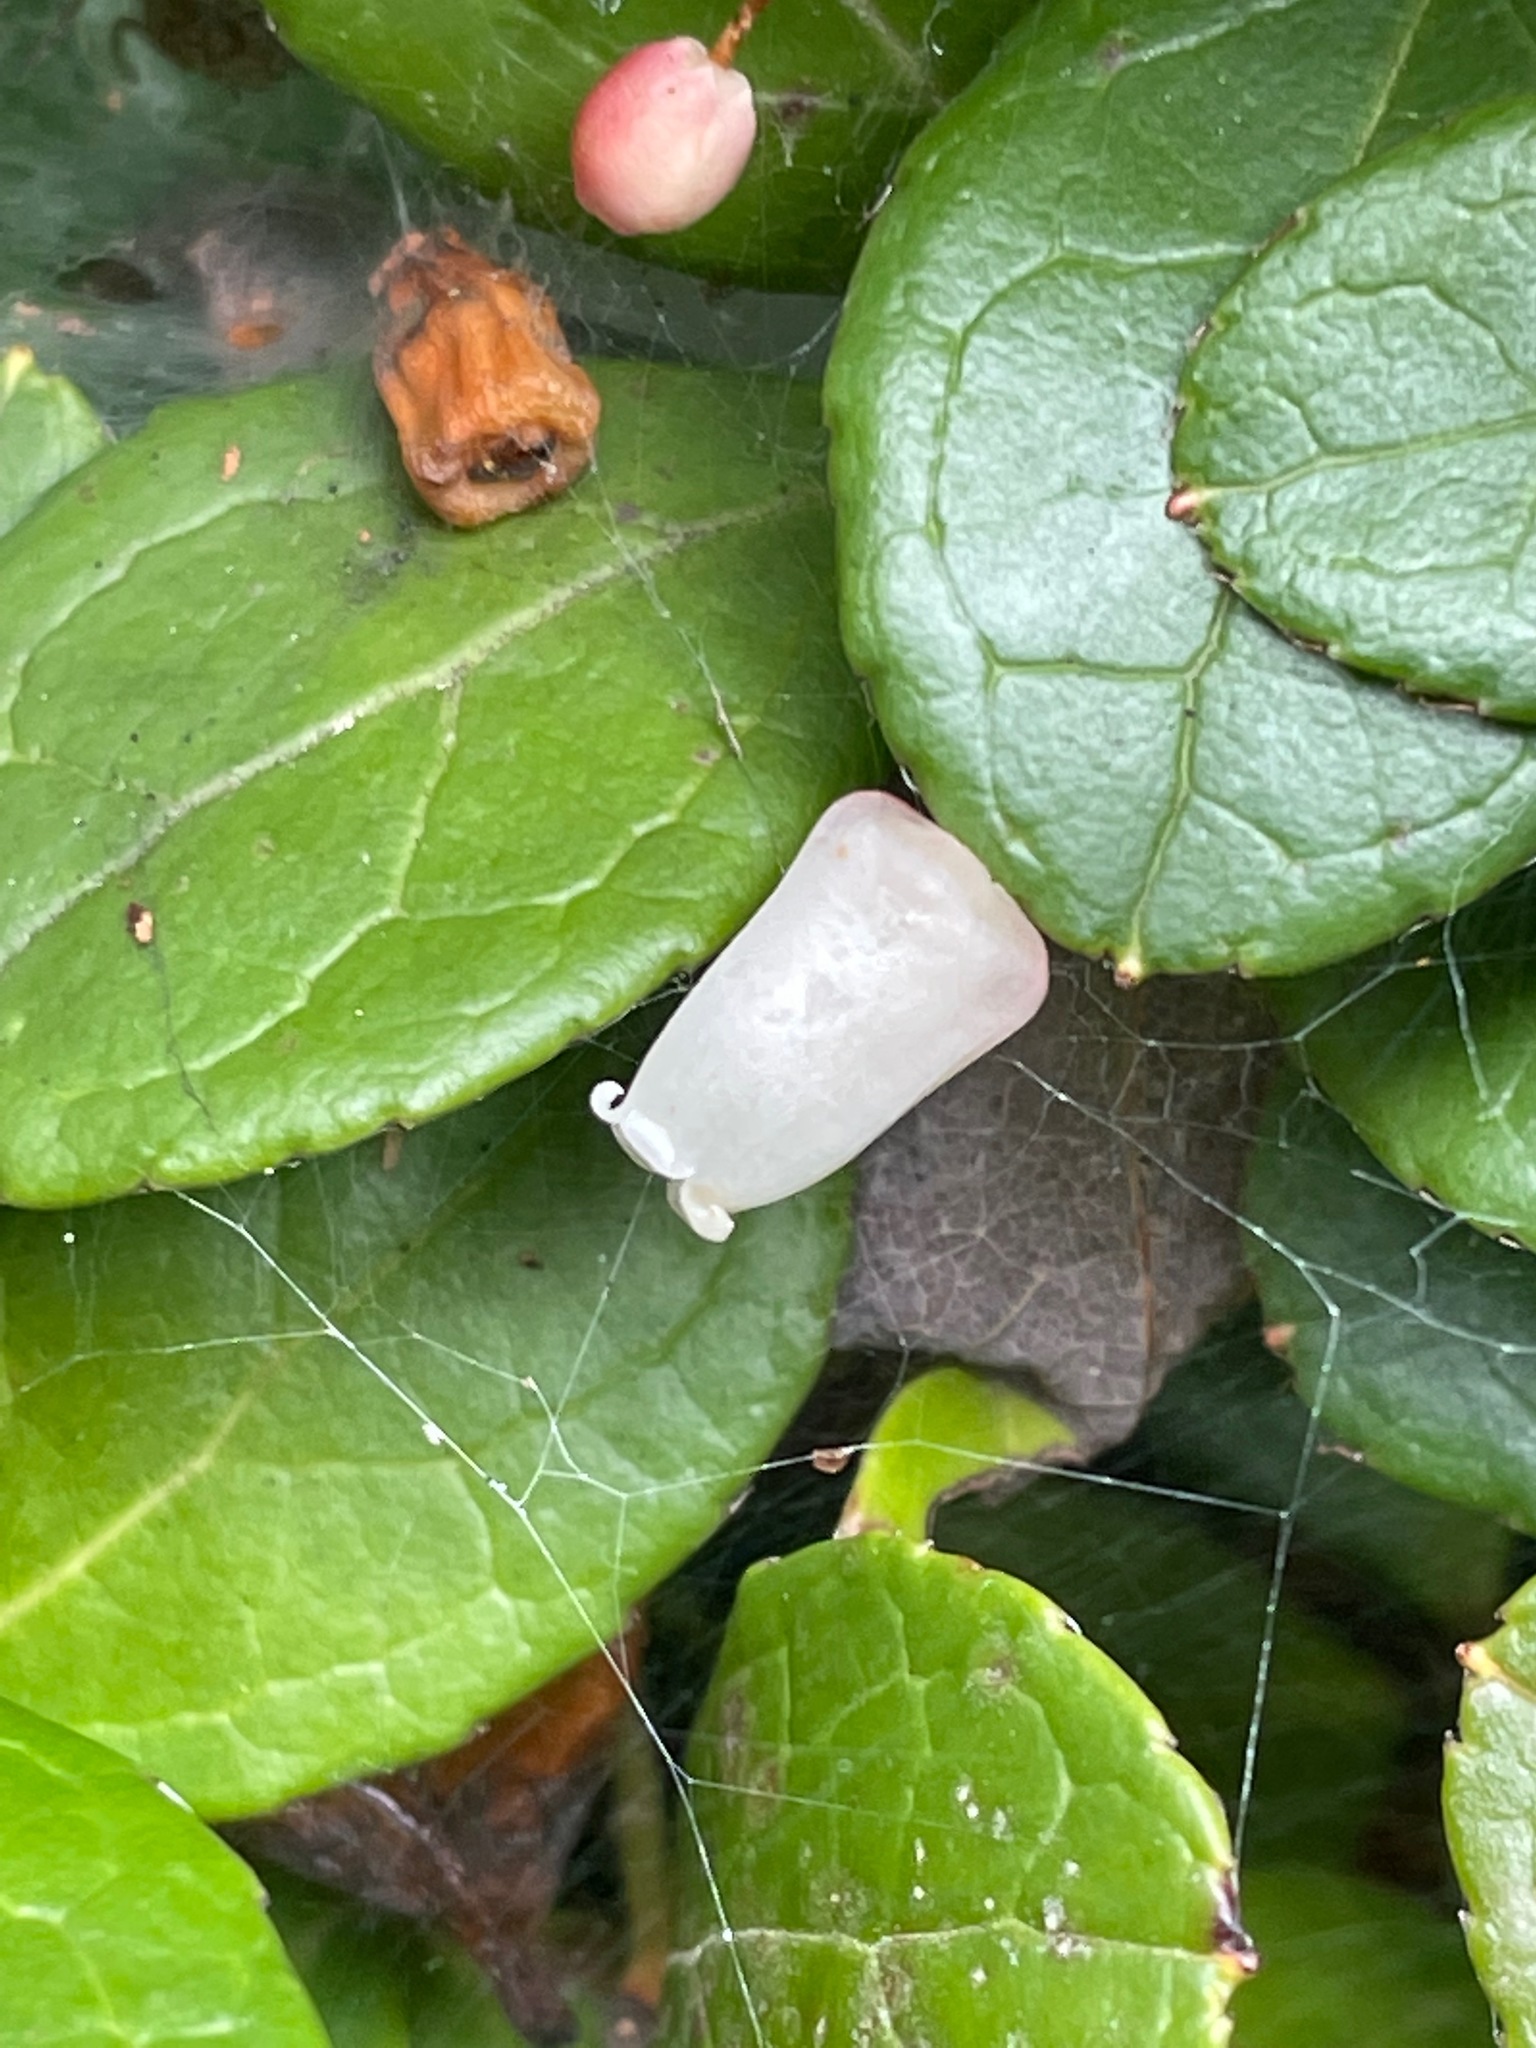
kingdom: Plantae
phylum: Tracheophyta
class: Magnoliopsida
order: Ericales
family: Ericaceae
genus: Gaultheria
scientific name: Gaultheria procumbens
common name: Checkerberry
